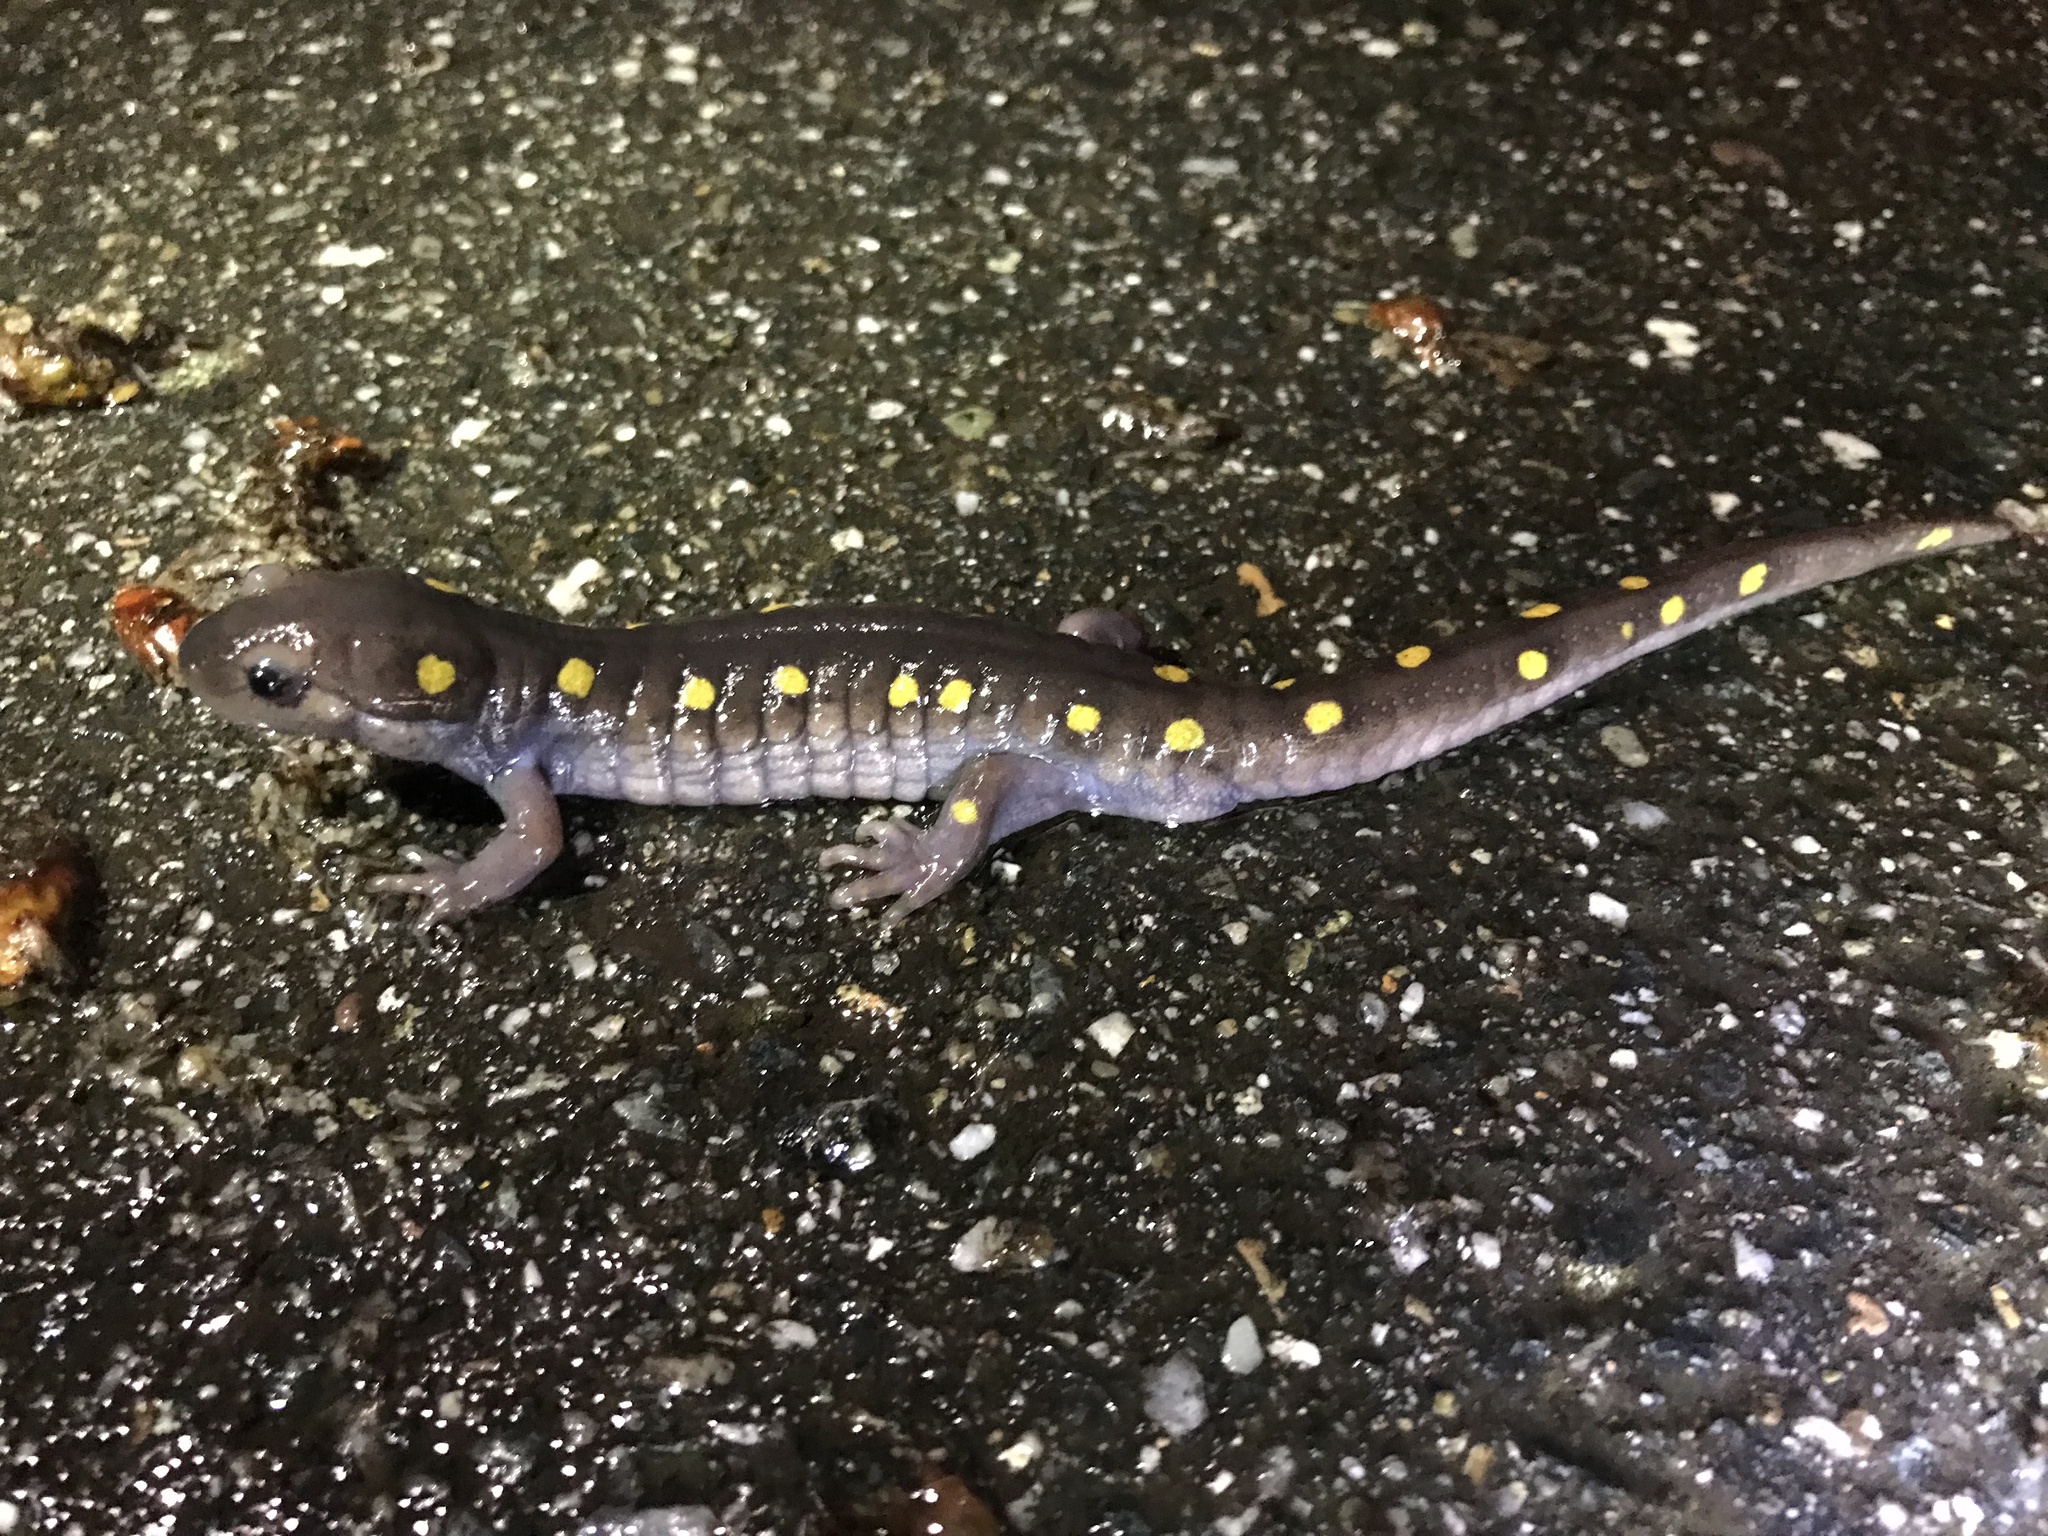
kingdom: Animalia
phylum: Chordata
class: Amphibia
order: Caudata
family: Ambystomatidae
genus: Ambystoma
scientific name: Ambystoma maculatum
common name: Spotted salamander
